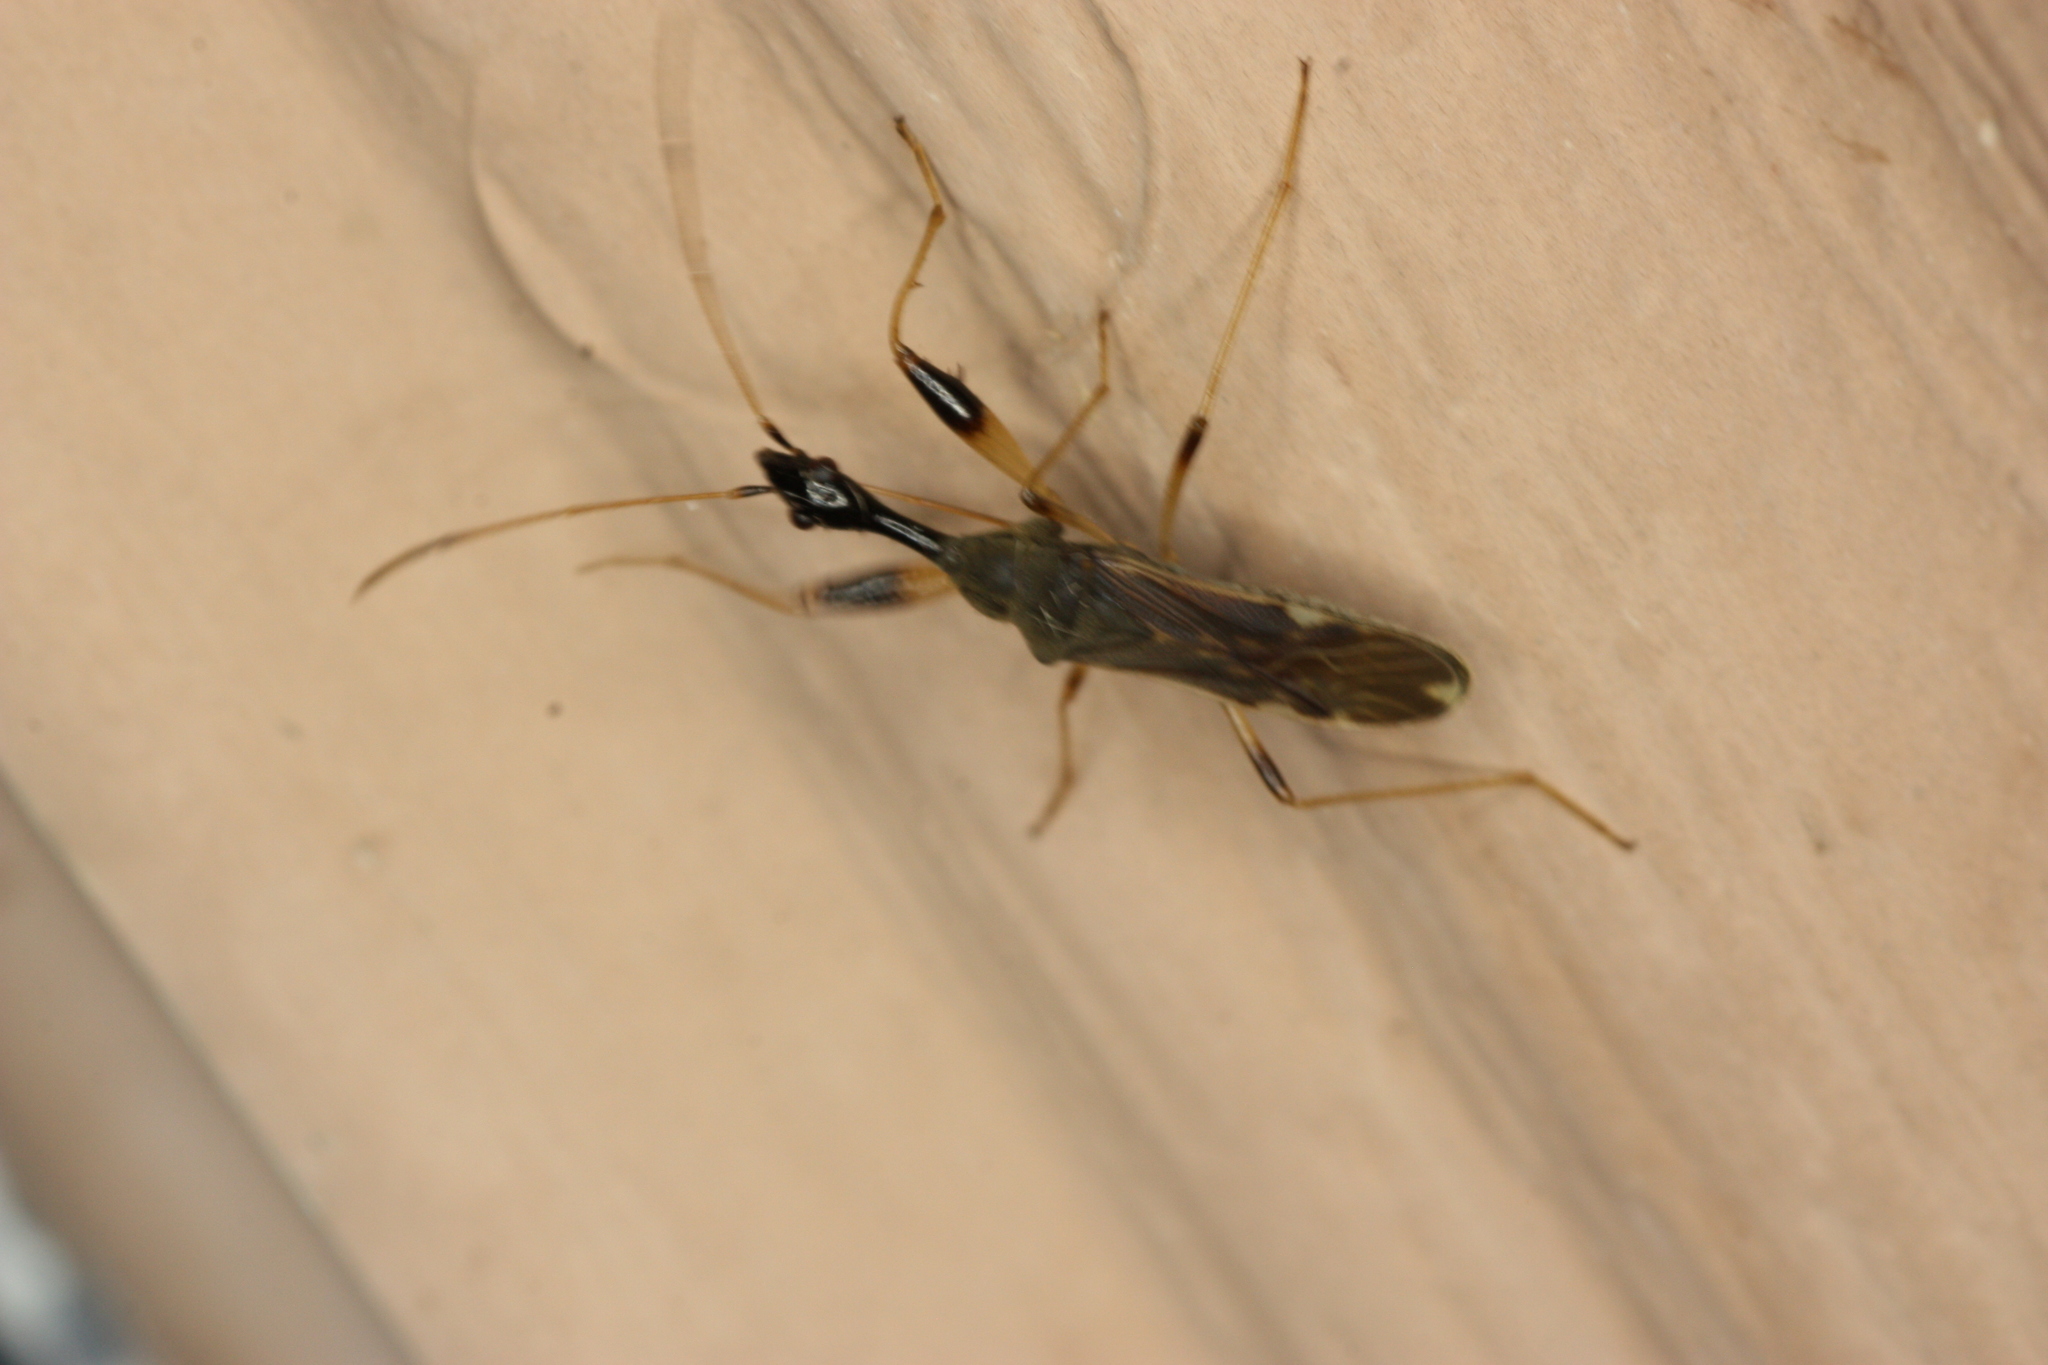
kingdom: Animalia
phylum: Arthropoda
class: Insecta
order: Hemiptera
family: Rhyparochromidae
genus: Myodocha
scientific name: Myodocha serripes
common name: Long-necked seed bug
